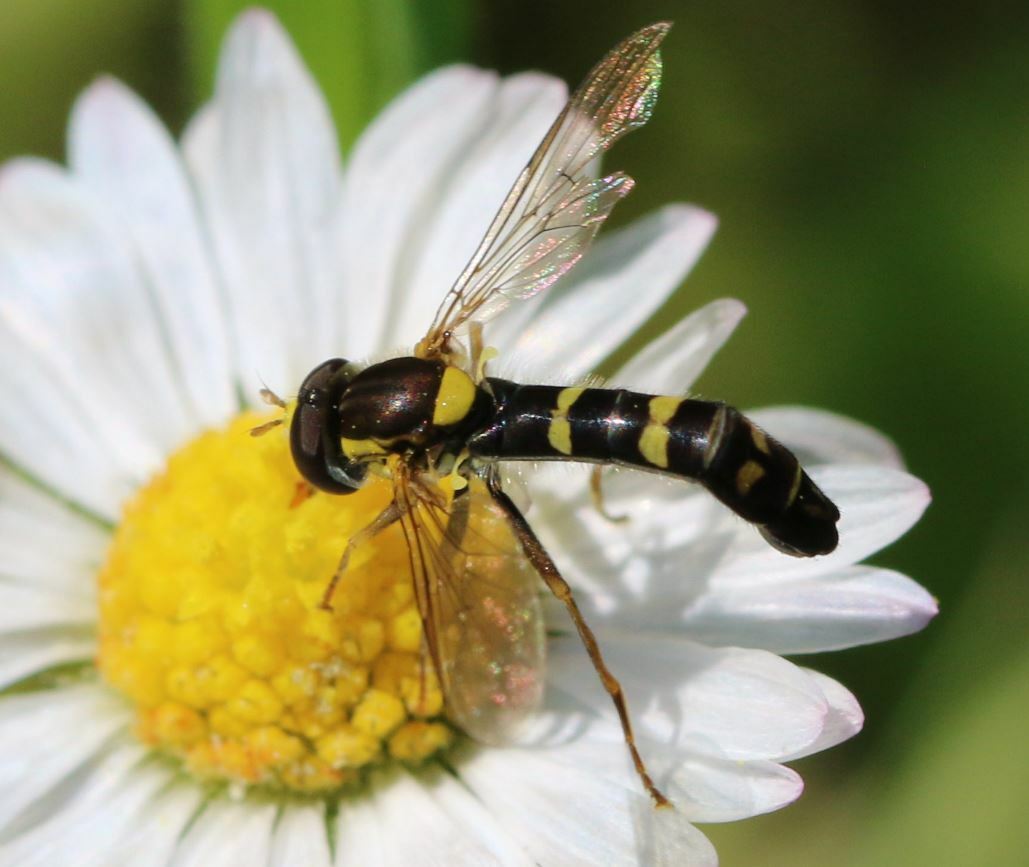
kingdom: Animalia
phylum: Arthropoda
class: Insecta
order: Diptera
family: Syrphidae
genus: Sphaerophoria
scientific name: Sphaerophoria scripta
